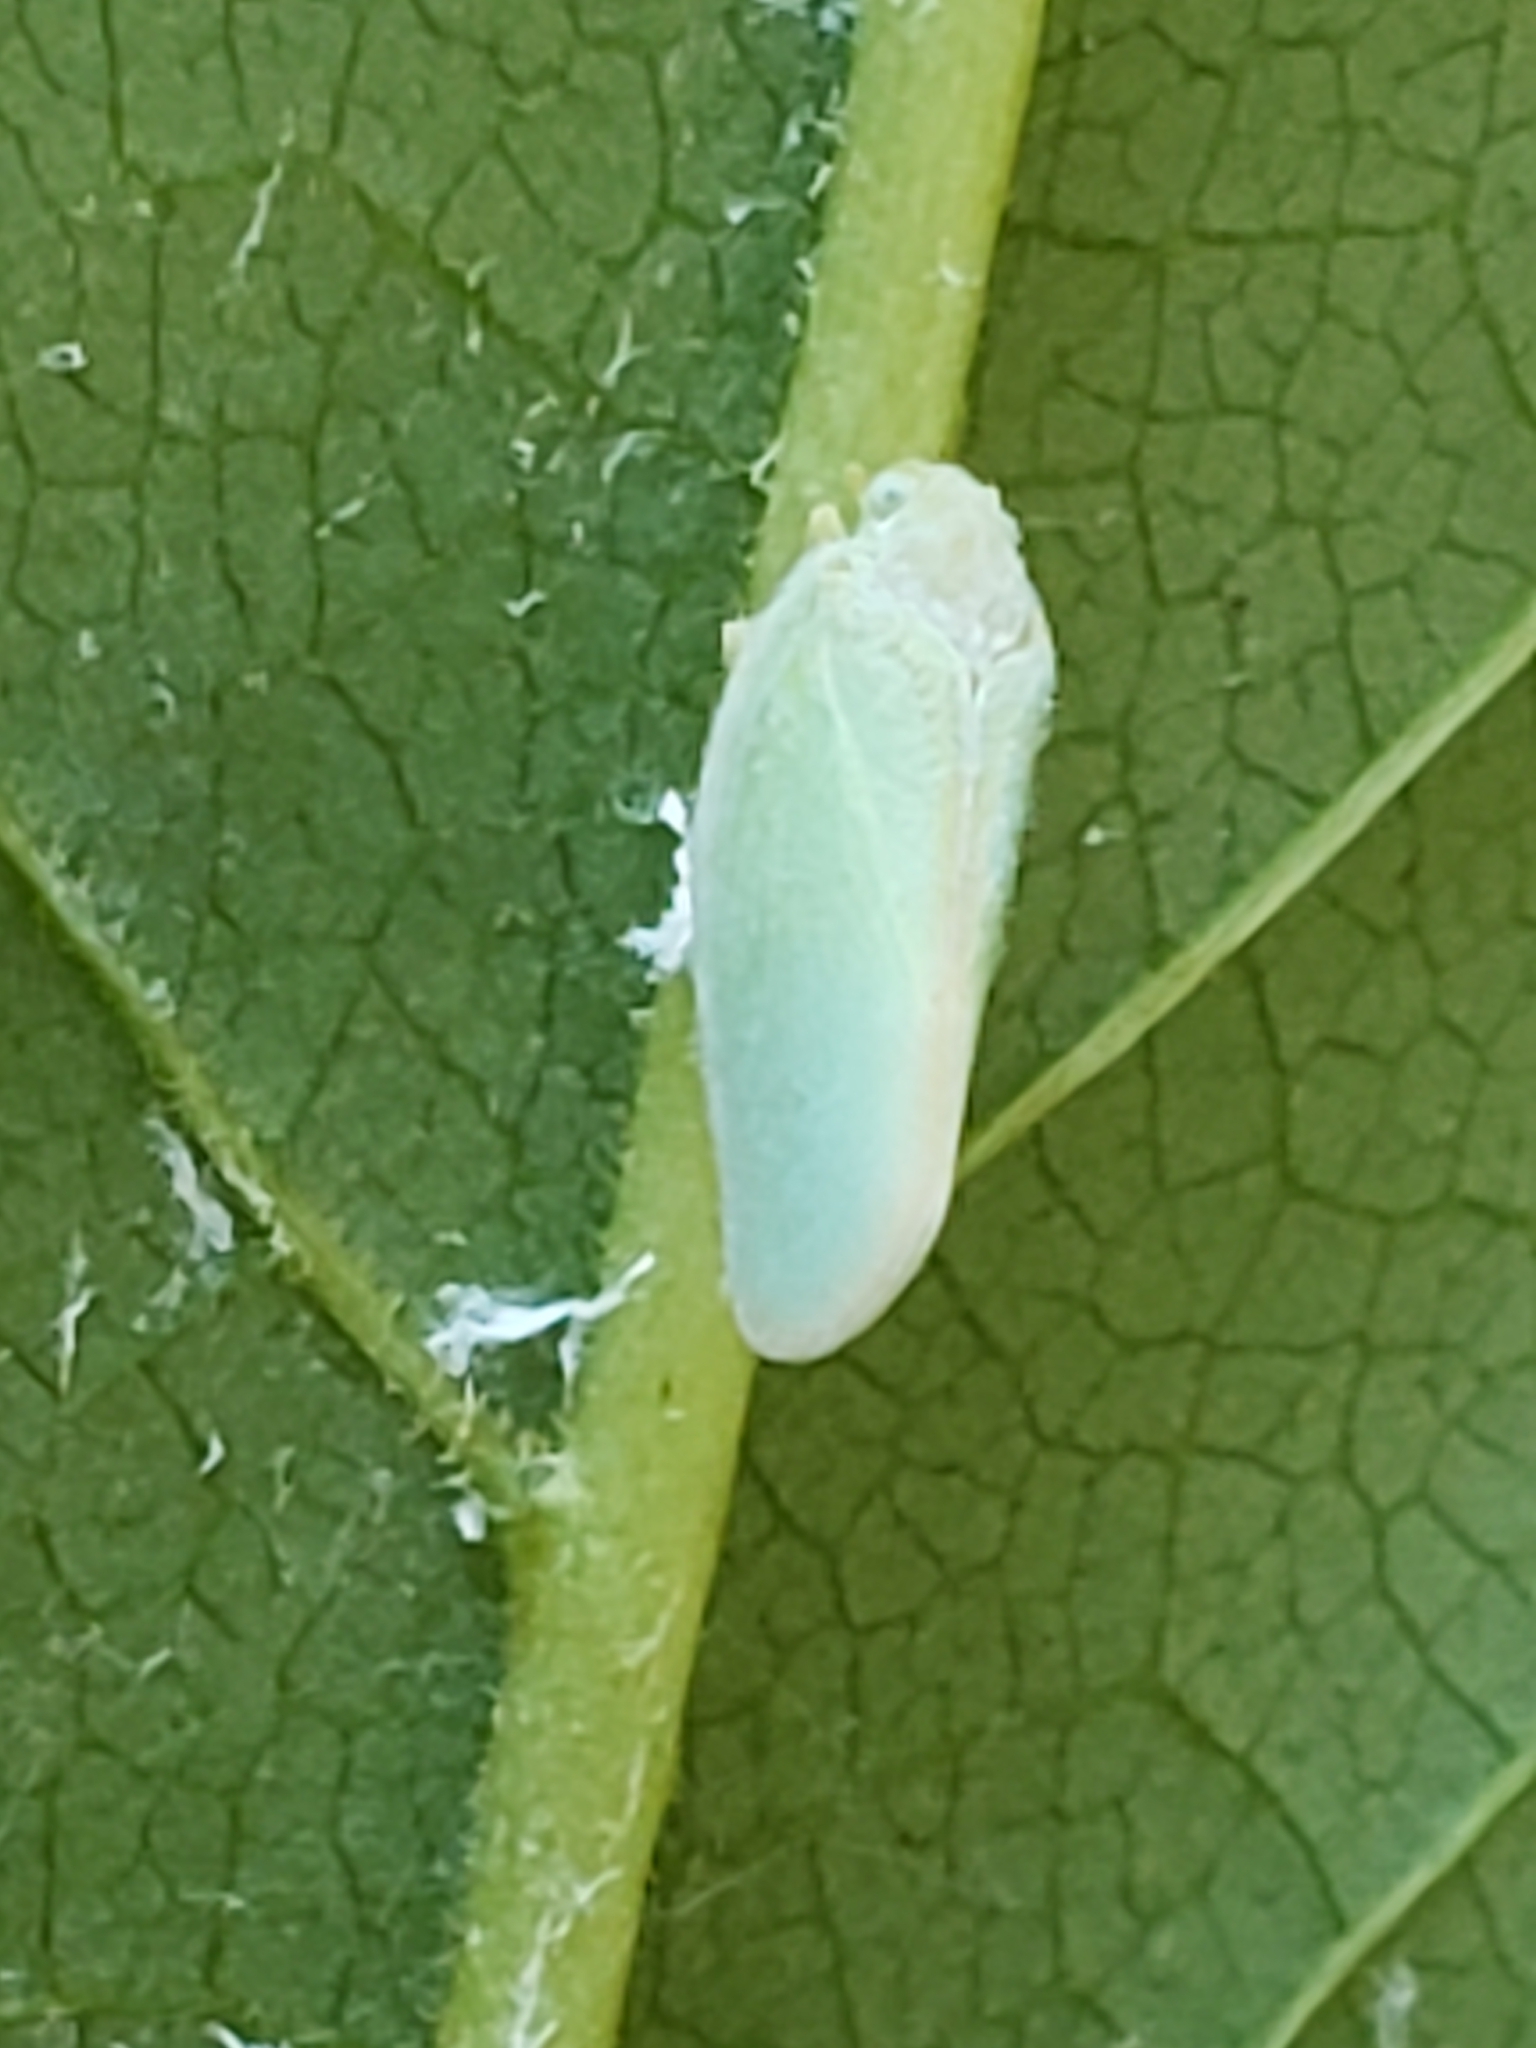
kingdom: Animalia
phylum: Arthropoda
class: Insecta
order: Hemiptera
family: Flatidae
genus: Ormenoides
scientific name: Ormenoides venusta
